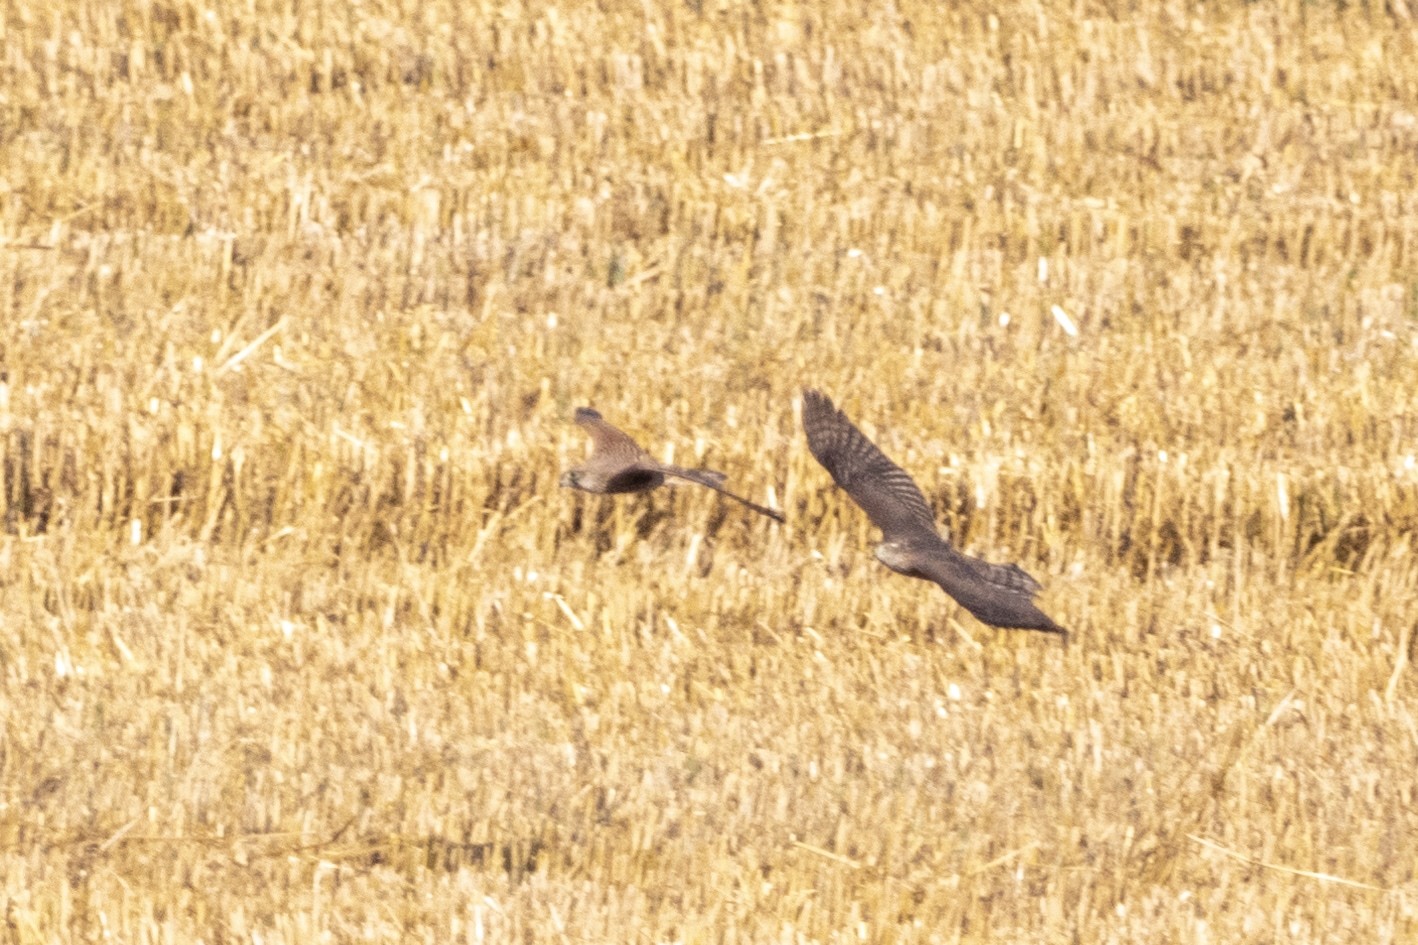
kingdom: Animalia
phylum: Chordata
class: Aves
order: Falconiformes
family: Falconidae
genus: Falco
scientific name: Falco tinnunculus
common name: Common kestrel
